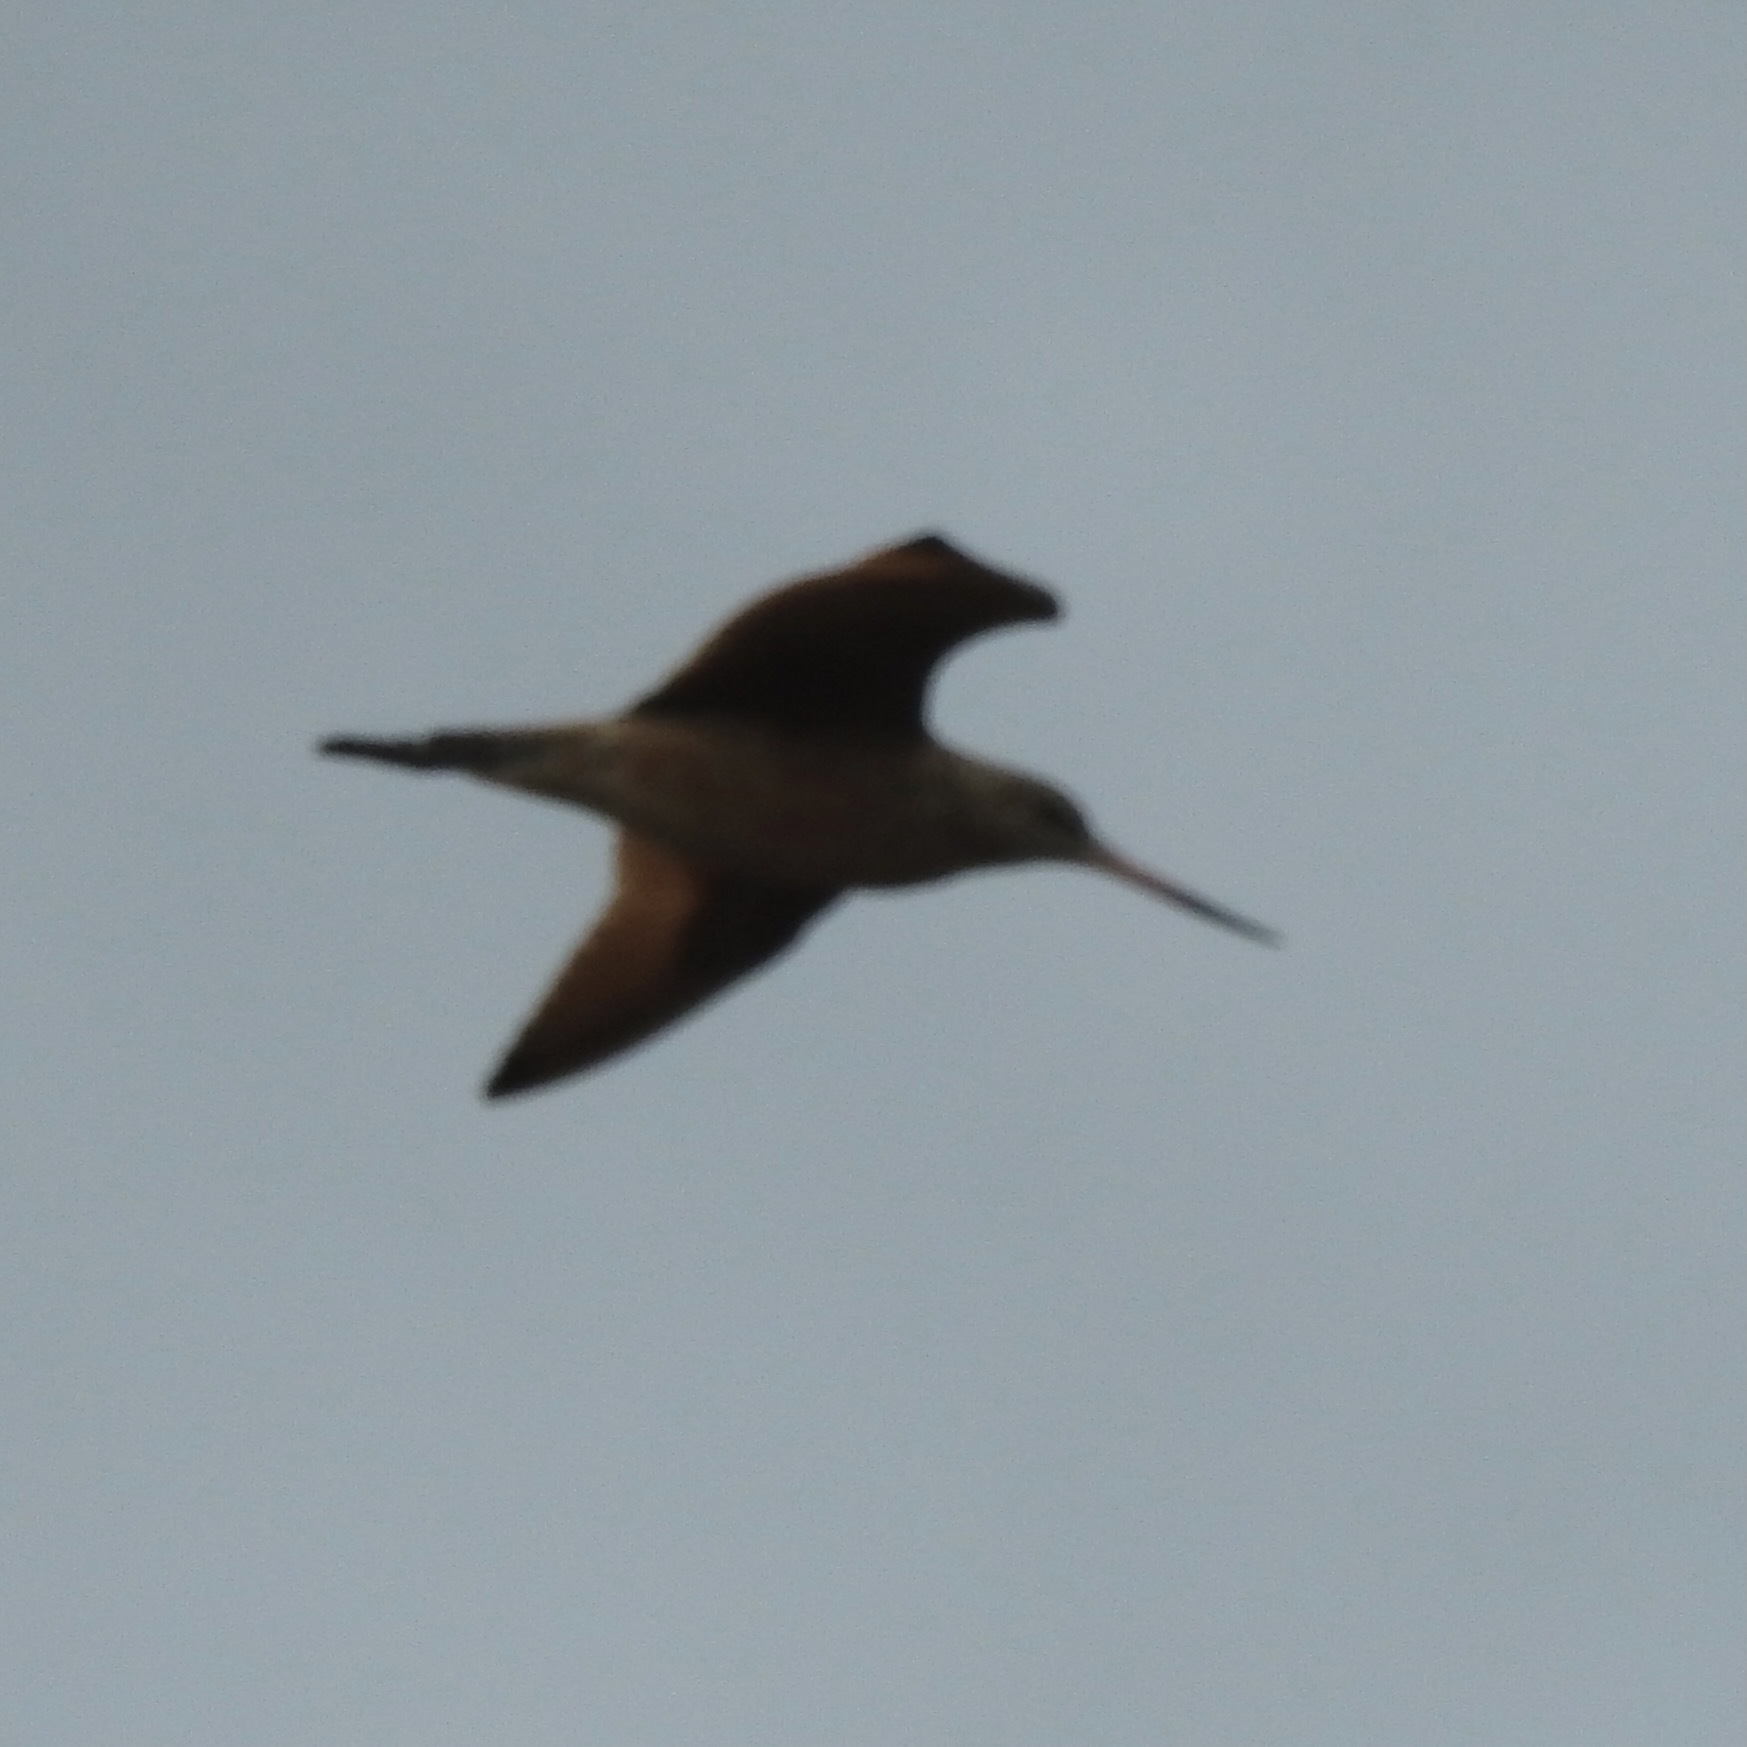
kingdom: Animalia
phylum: Chordata
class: Aves
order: Charadriiformes
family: Scolopacidae
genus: Limosa
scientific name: Limosa fedoa
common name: Marbled godwit
